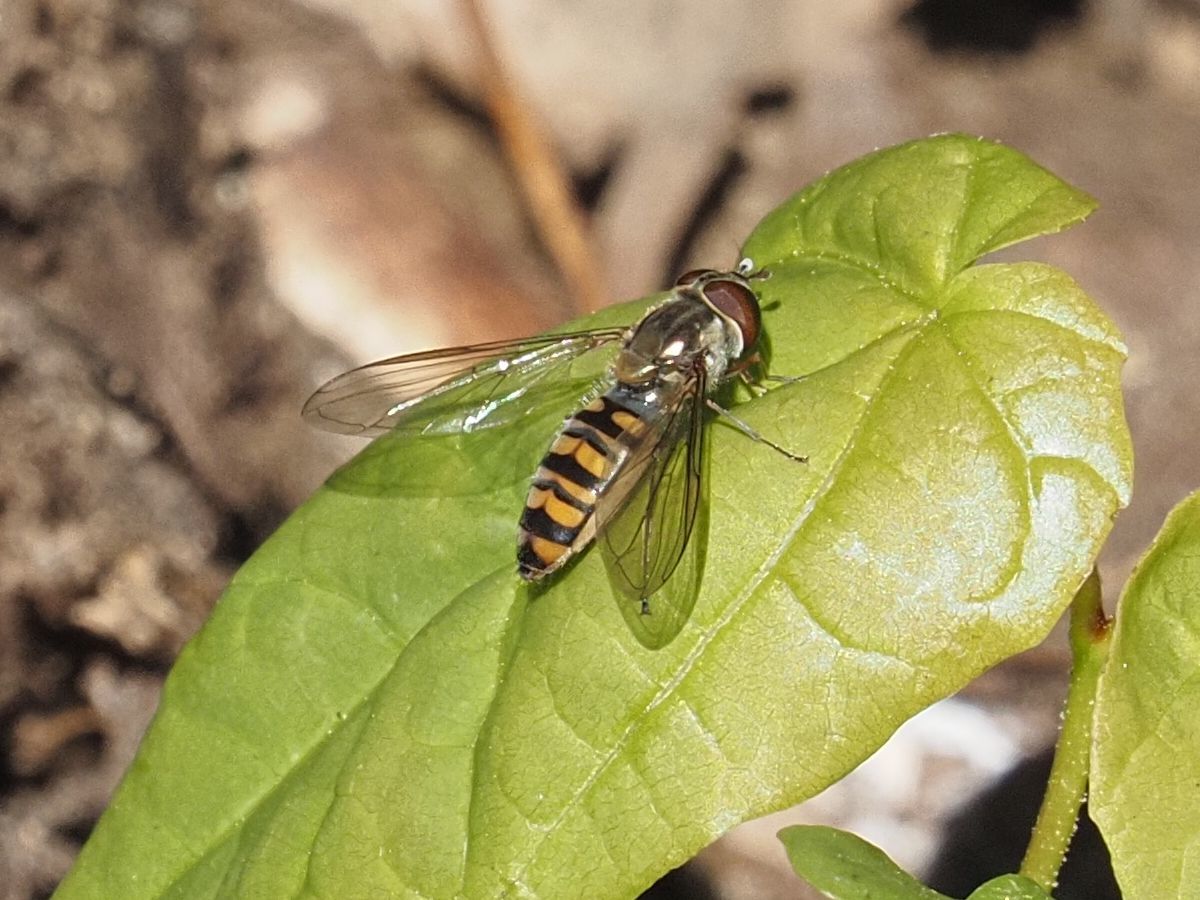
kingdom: Animalia
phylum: Arthropoda
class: Insecta
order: Diptera
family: Syrphidae
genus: Episyrphus
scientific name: Episyrphus balteatus
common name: Marmalade hoverfly
